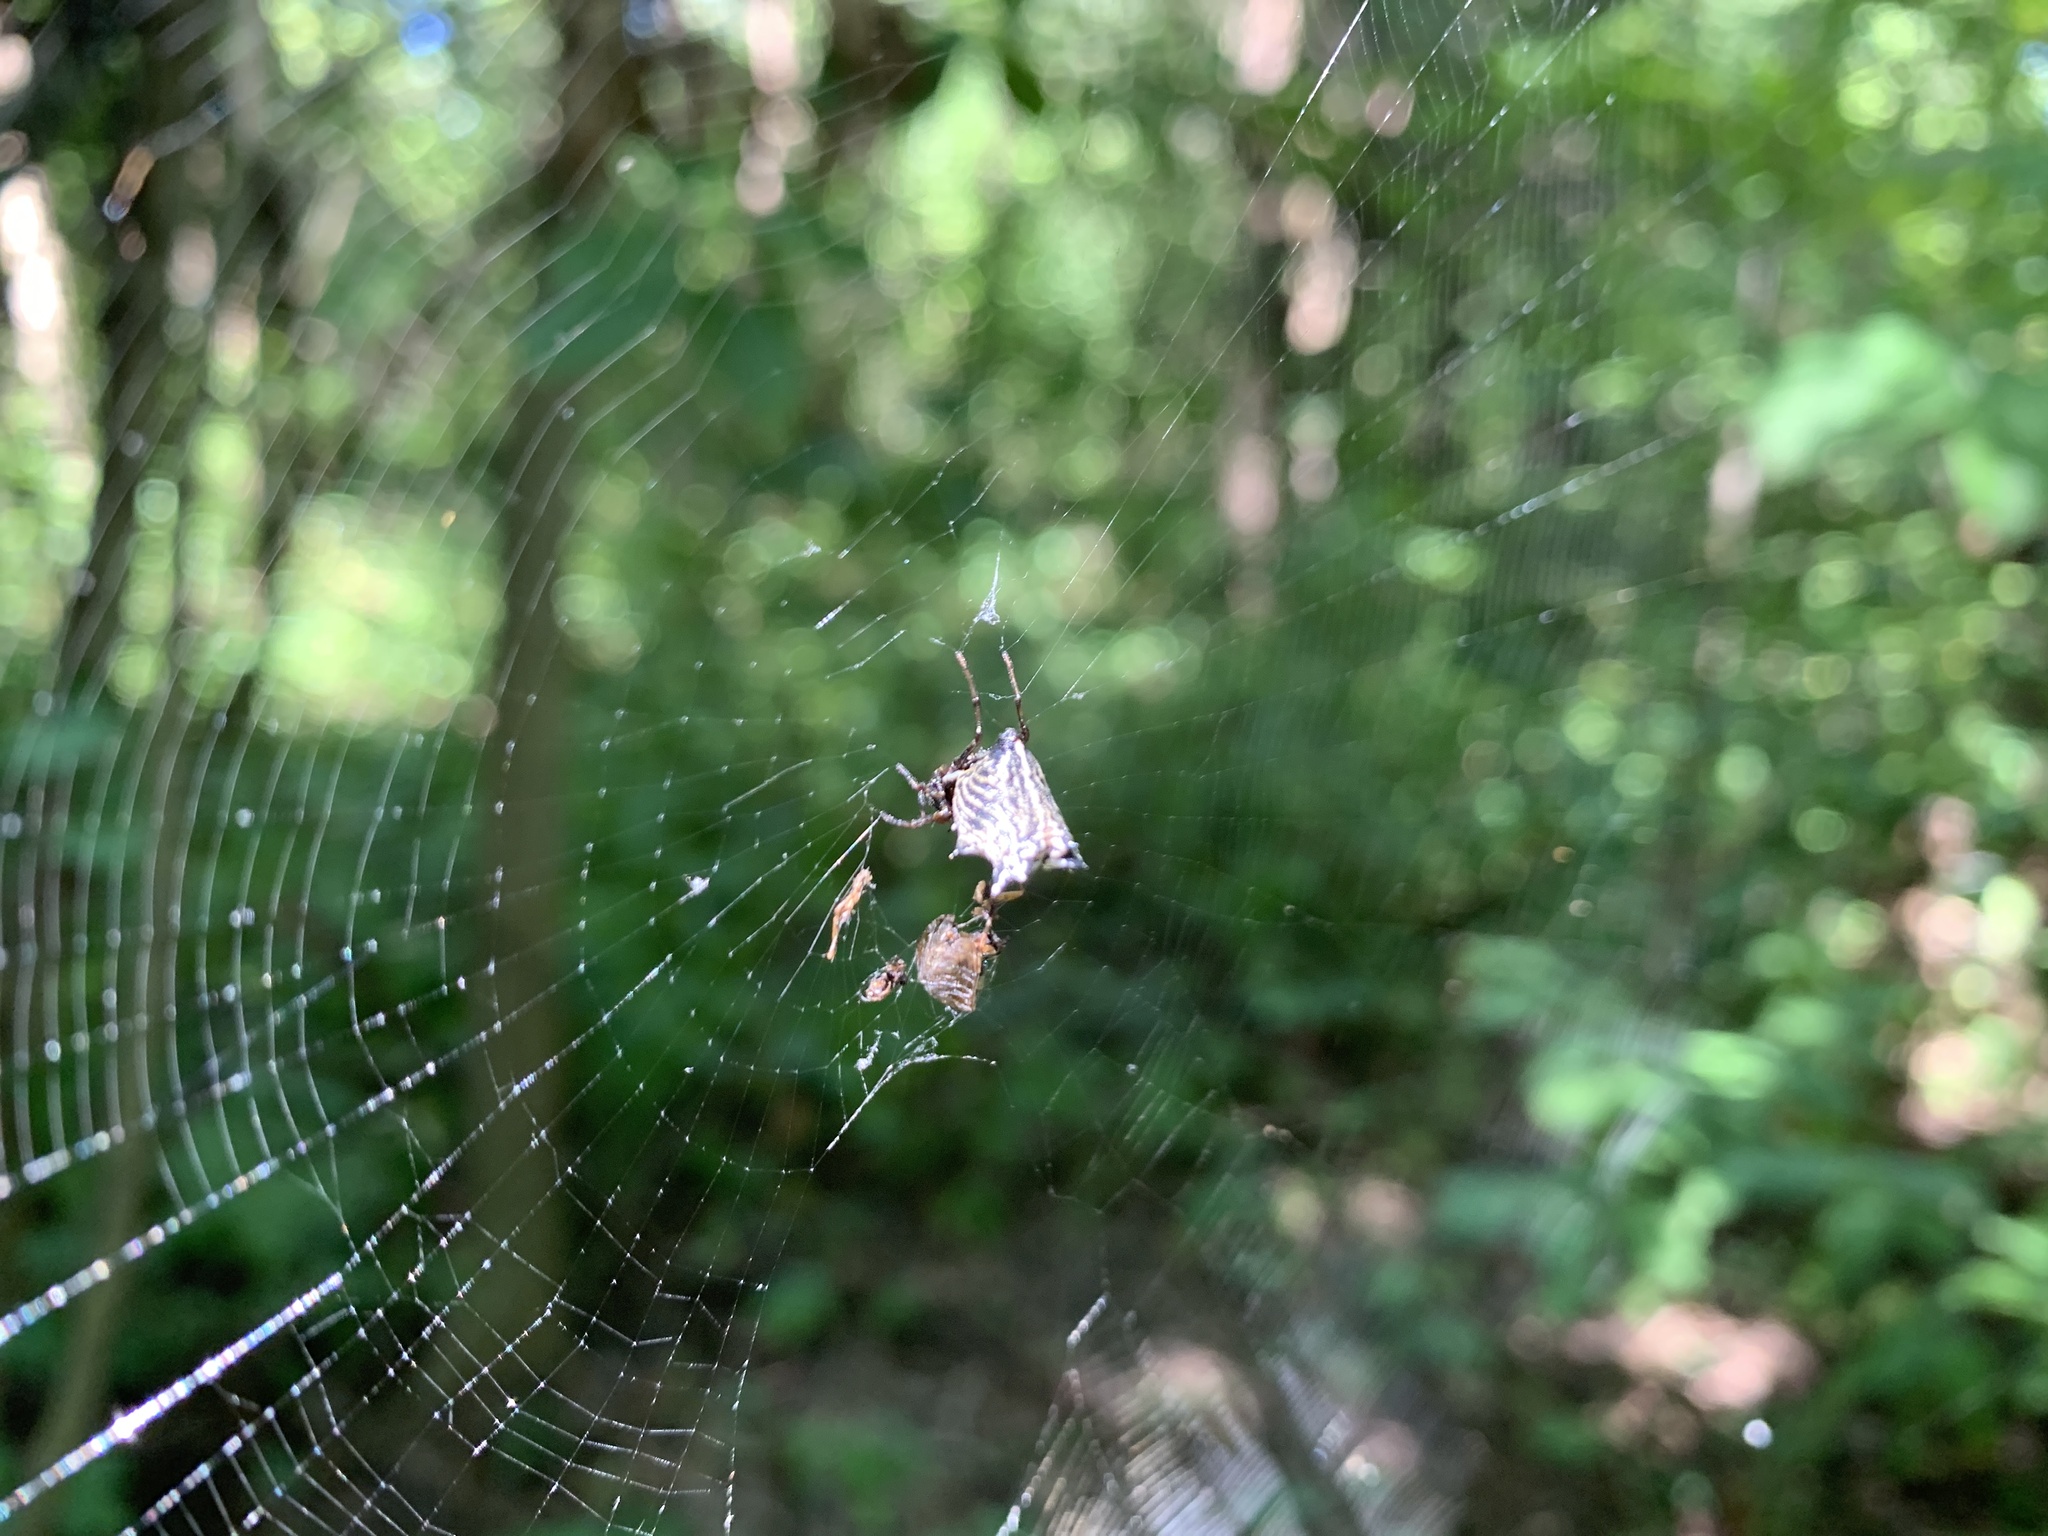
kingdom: Animalia
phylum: Arthropoda
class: Arachnida
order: Araneae
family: Araneidae
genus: Micrathena
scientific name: Micrathena gracilis
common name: Orb weavers
